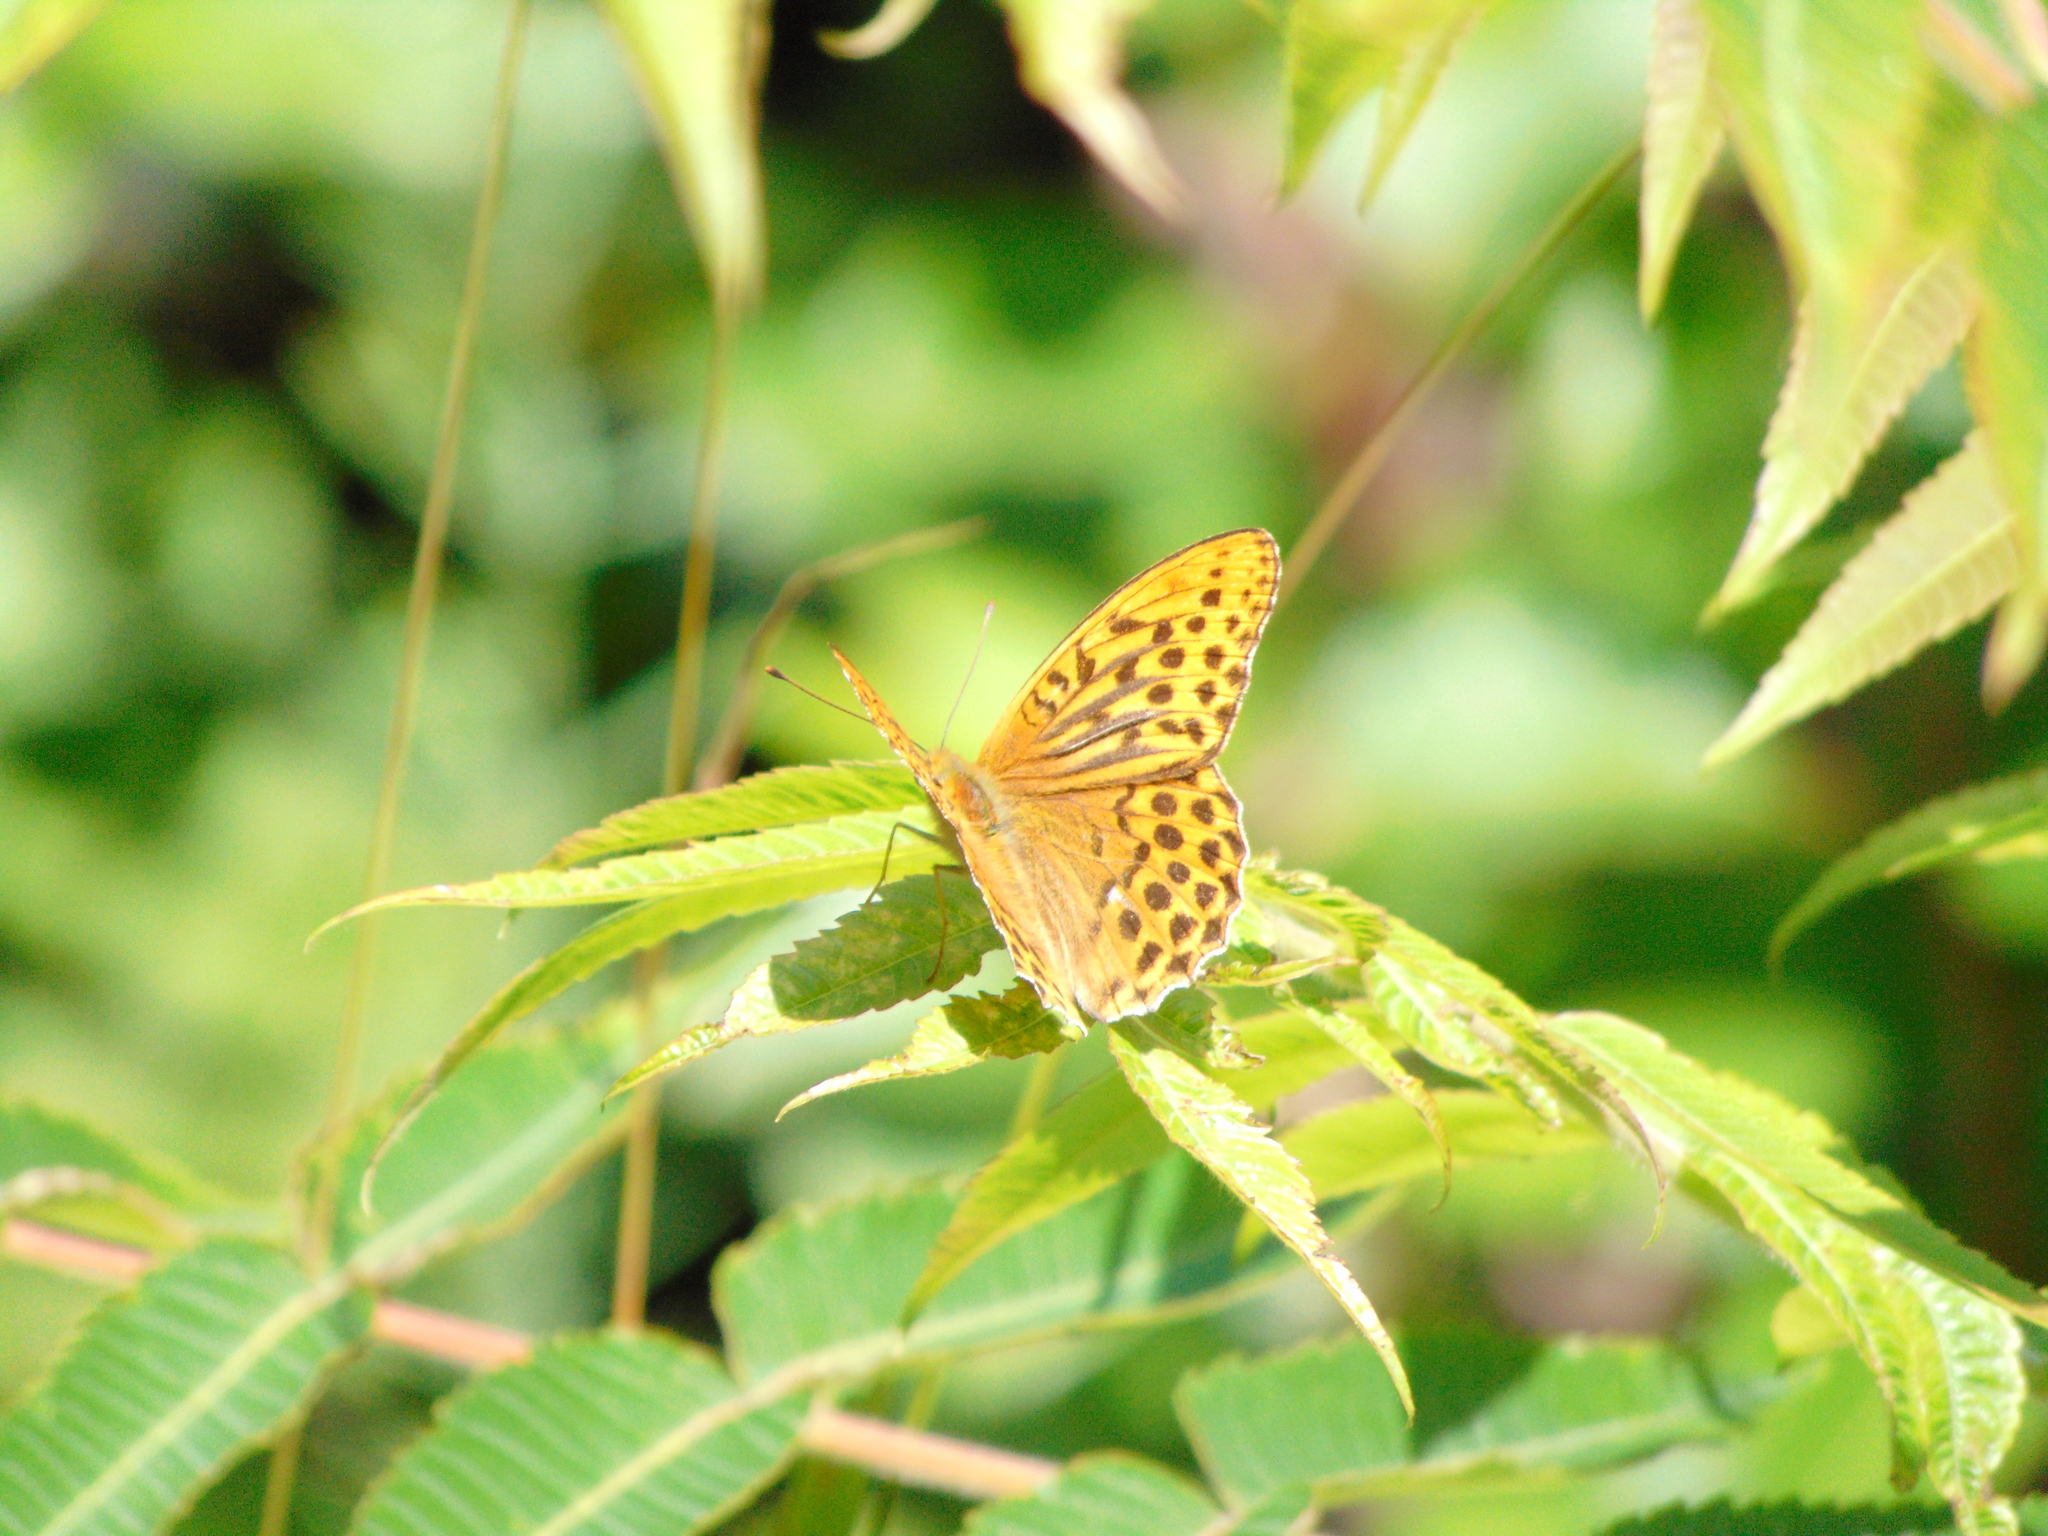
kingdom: Animalia
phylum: Arthropoda
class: Insecta
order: Lepidoptera
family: Nymphalidae
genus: Argynnis
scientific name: Argynnis paphia
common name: Silver-washed fritillary
